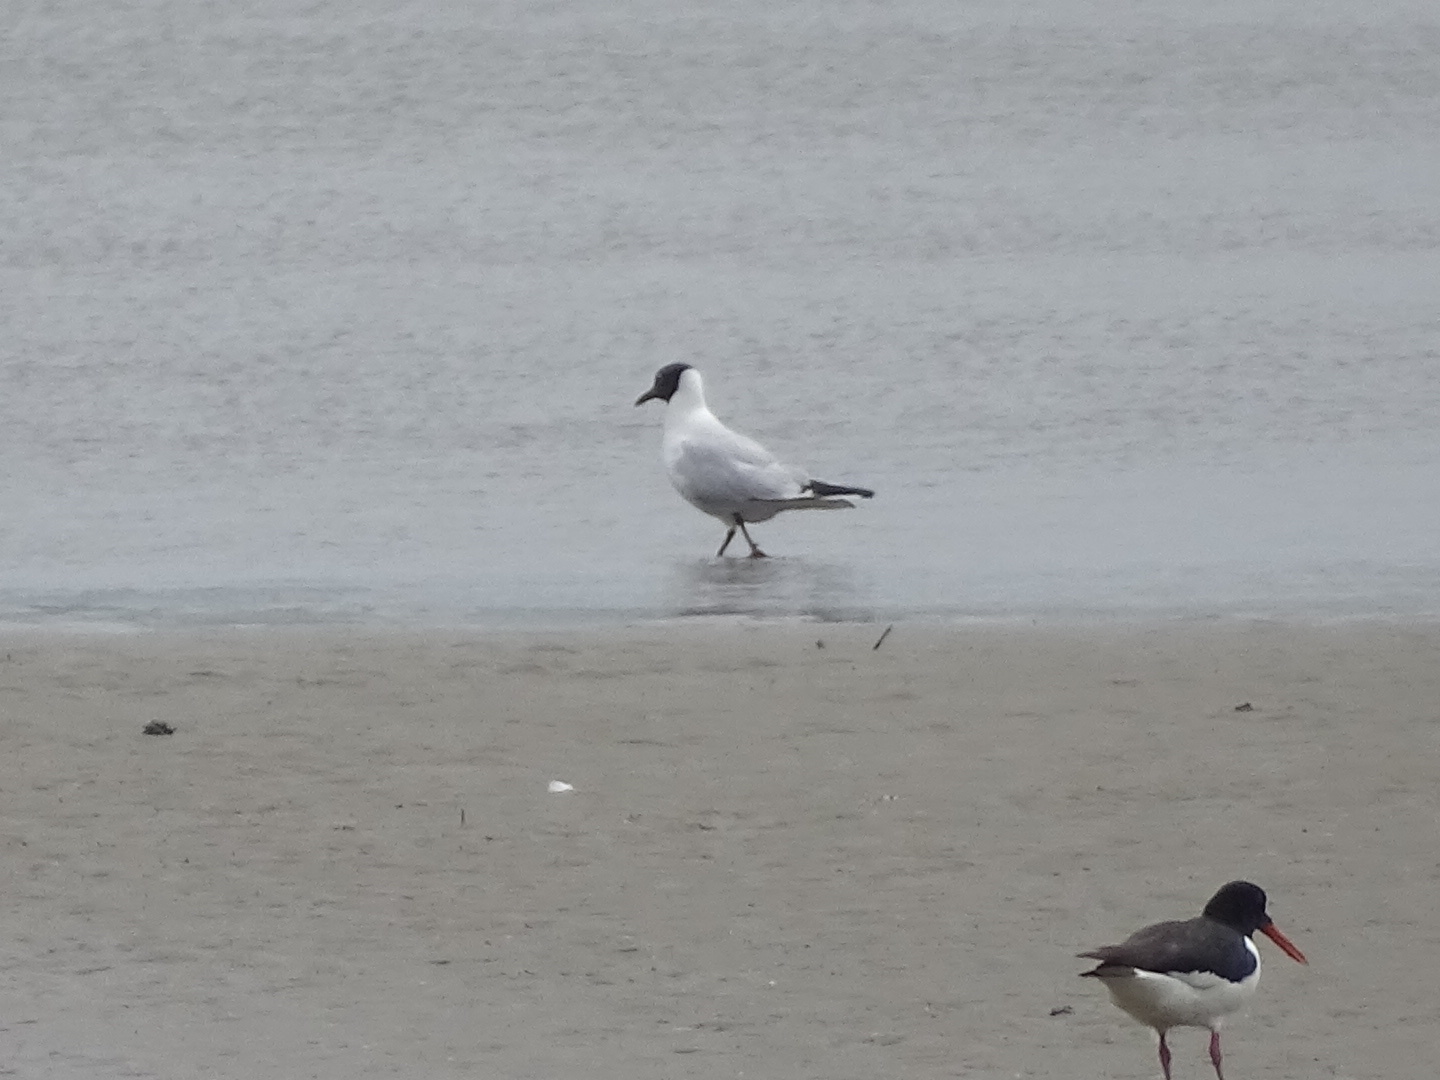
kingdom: Animalia
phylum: Chordata
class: Aves
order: Charadriiformes
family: Laridae
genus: Chroicocephalus
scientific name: Chroicocephalus ridibundus
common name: Black-headed gull
